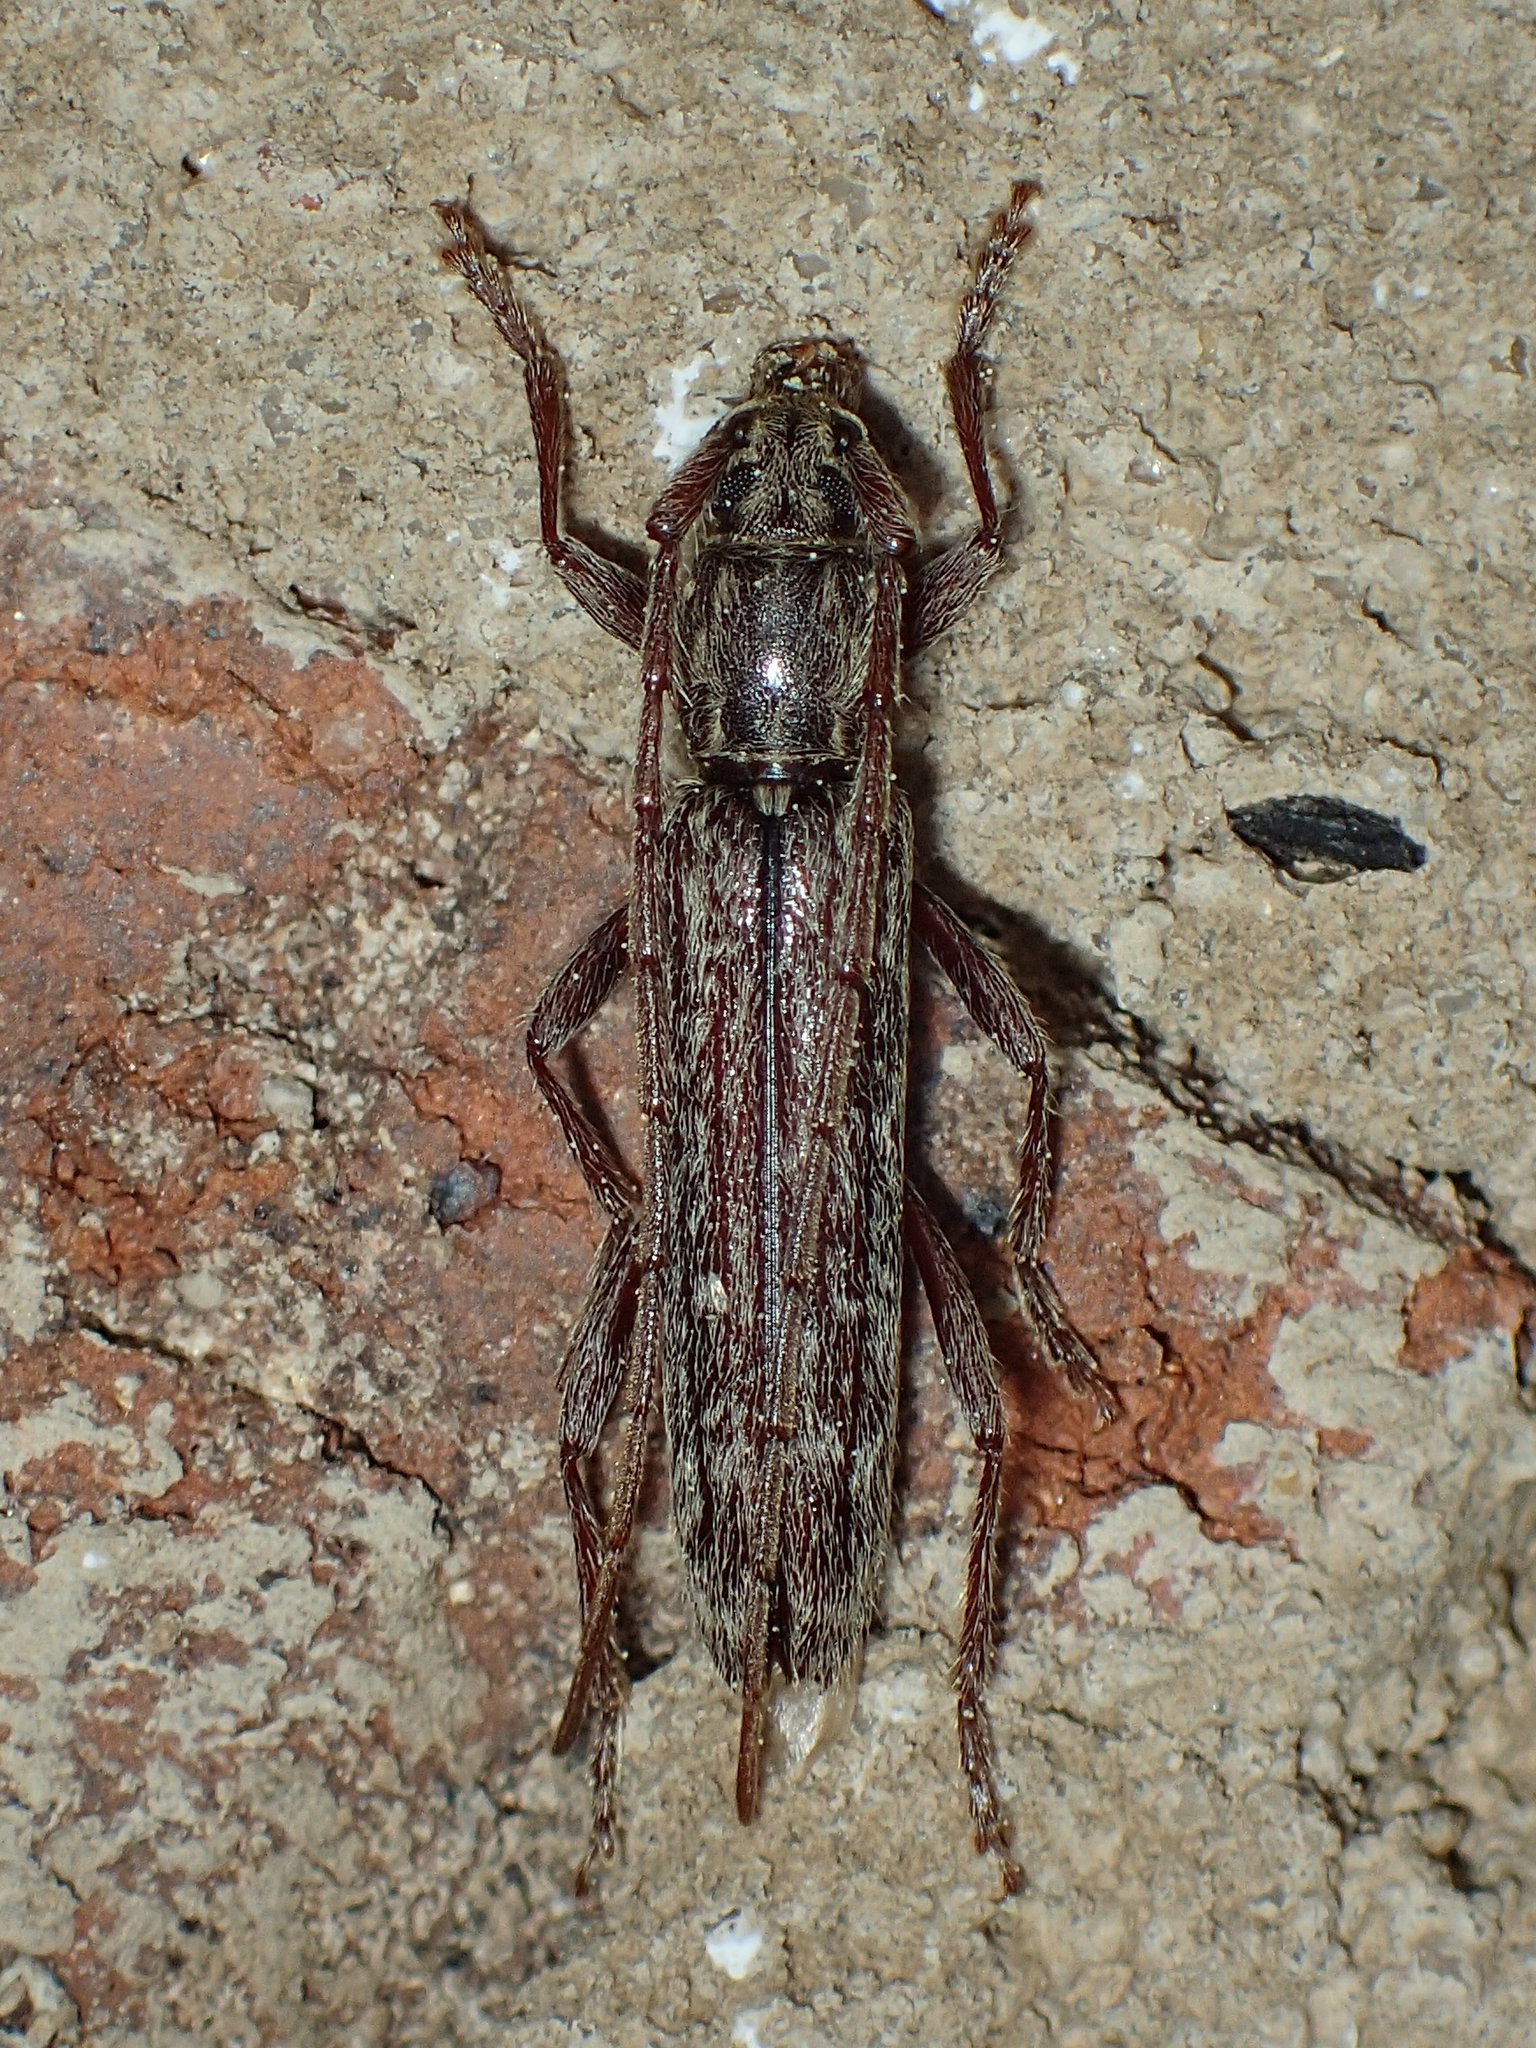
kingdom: Animalia
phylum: Arthropoda
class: Insecta
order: Coleoptera
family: Cerambycidae
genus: Anelaphus
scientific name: Anelaphus villosus
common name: Twig pruner
